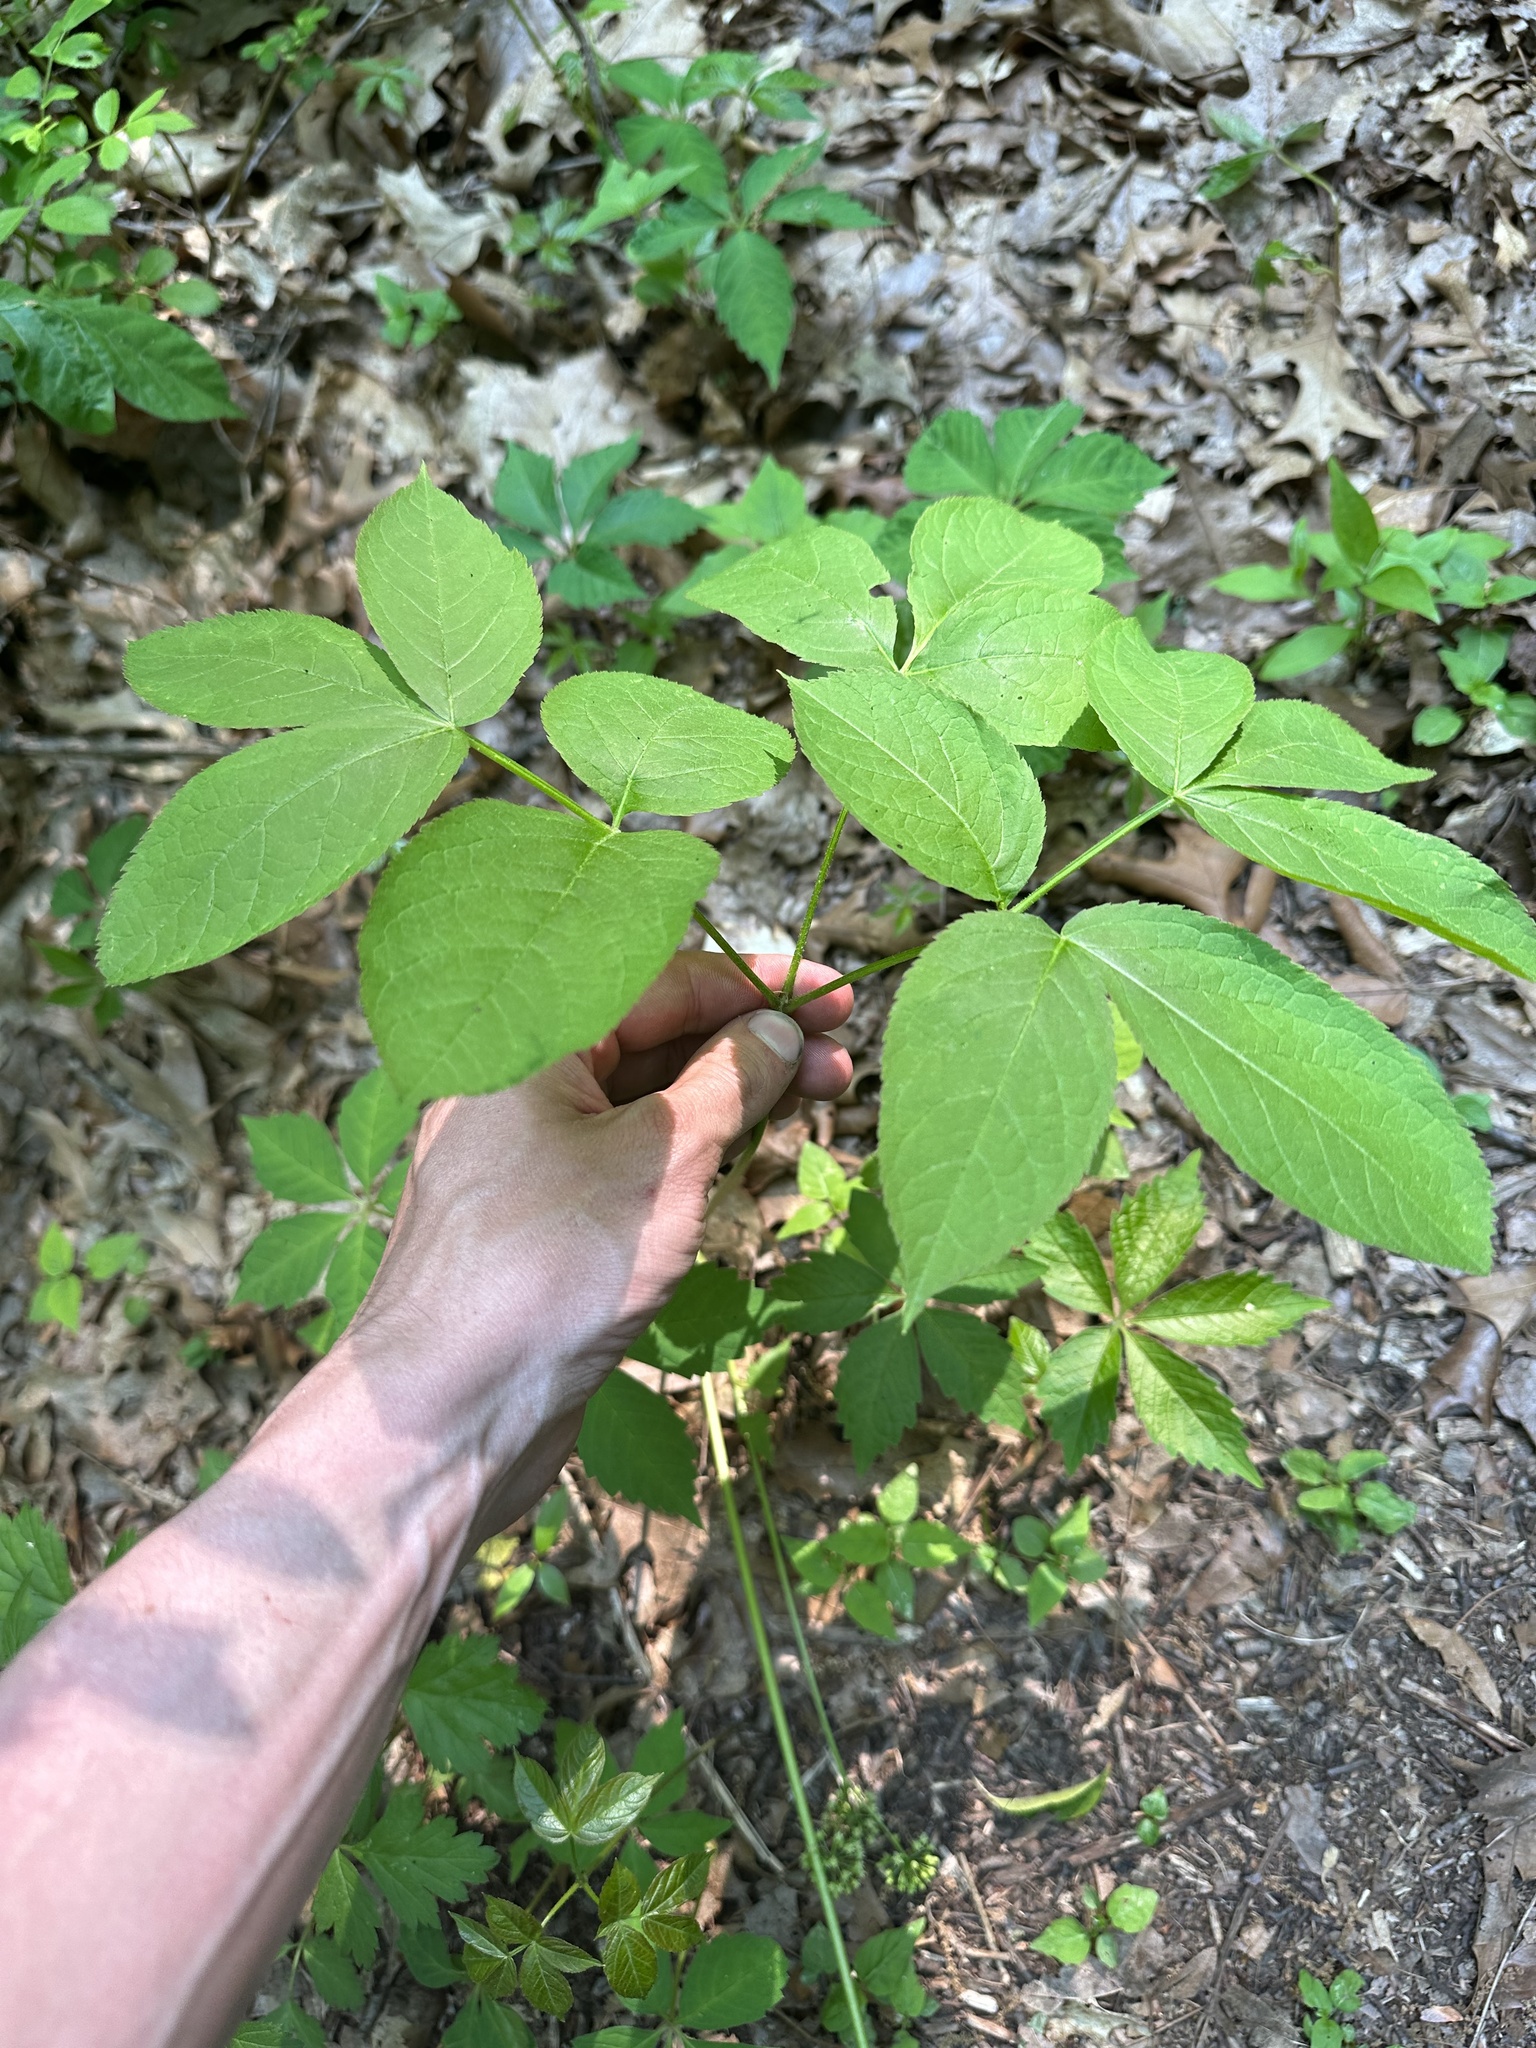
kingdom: Plantae
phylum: Tracheophyta
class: Magnoliopsida
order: Apiales
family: Araliaceae
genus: Aralia
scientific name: Aralia nudicaulis
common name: Wild sarsaparilla
